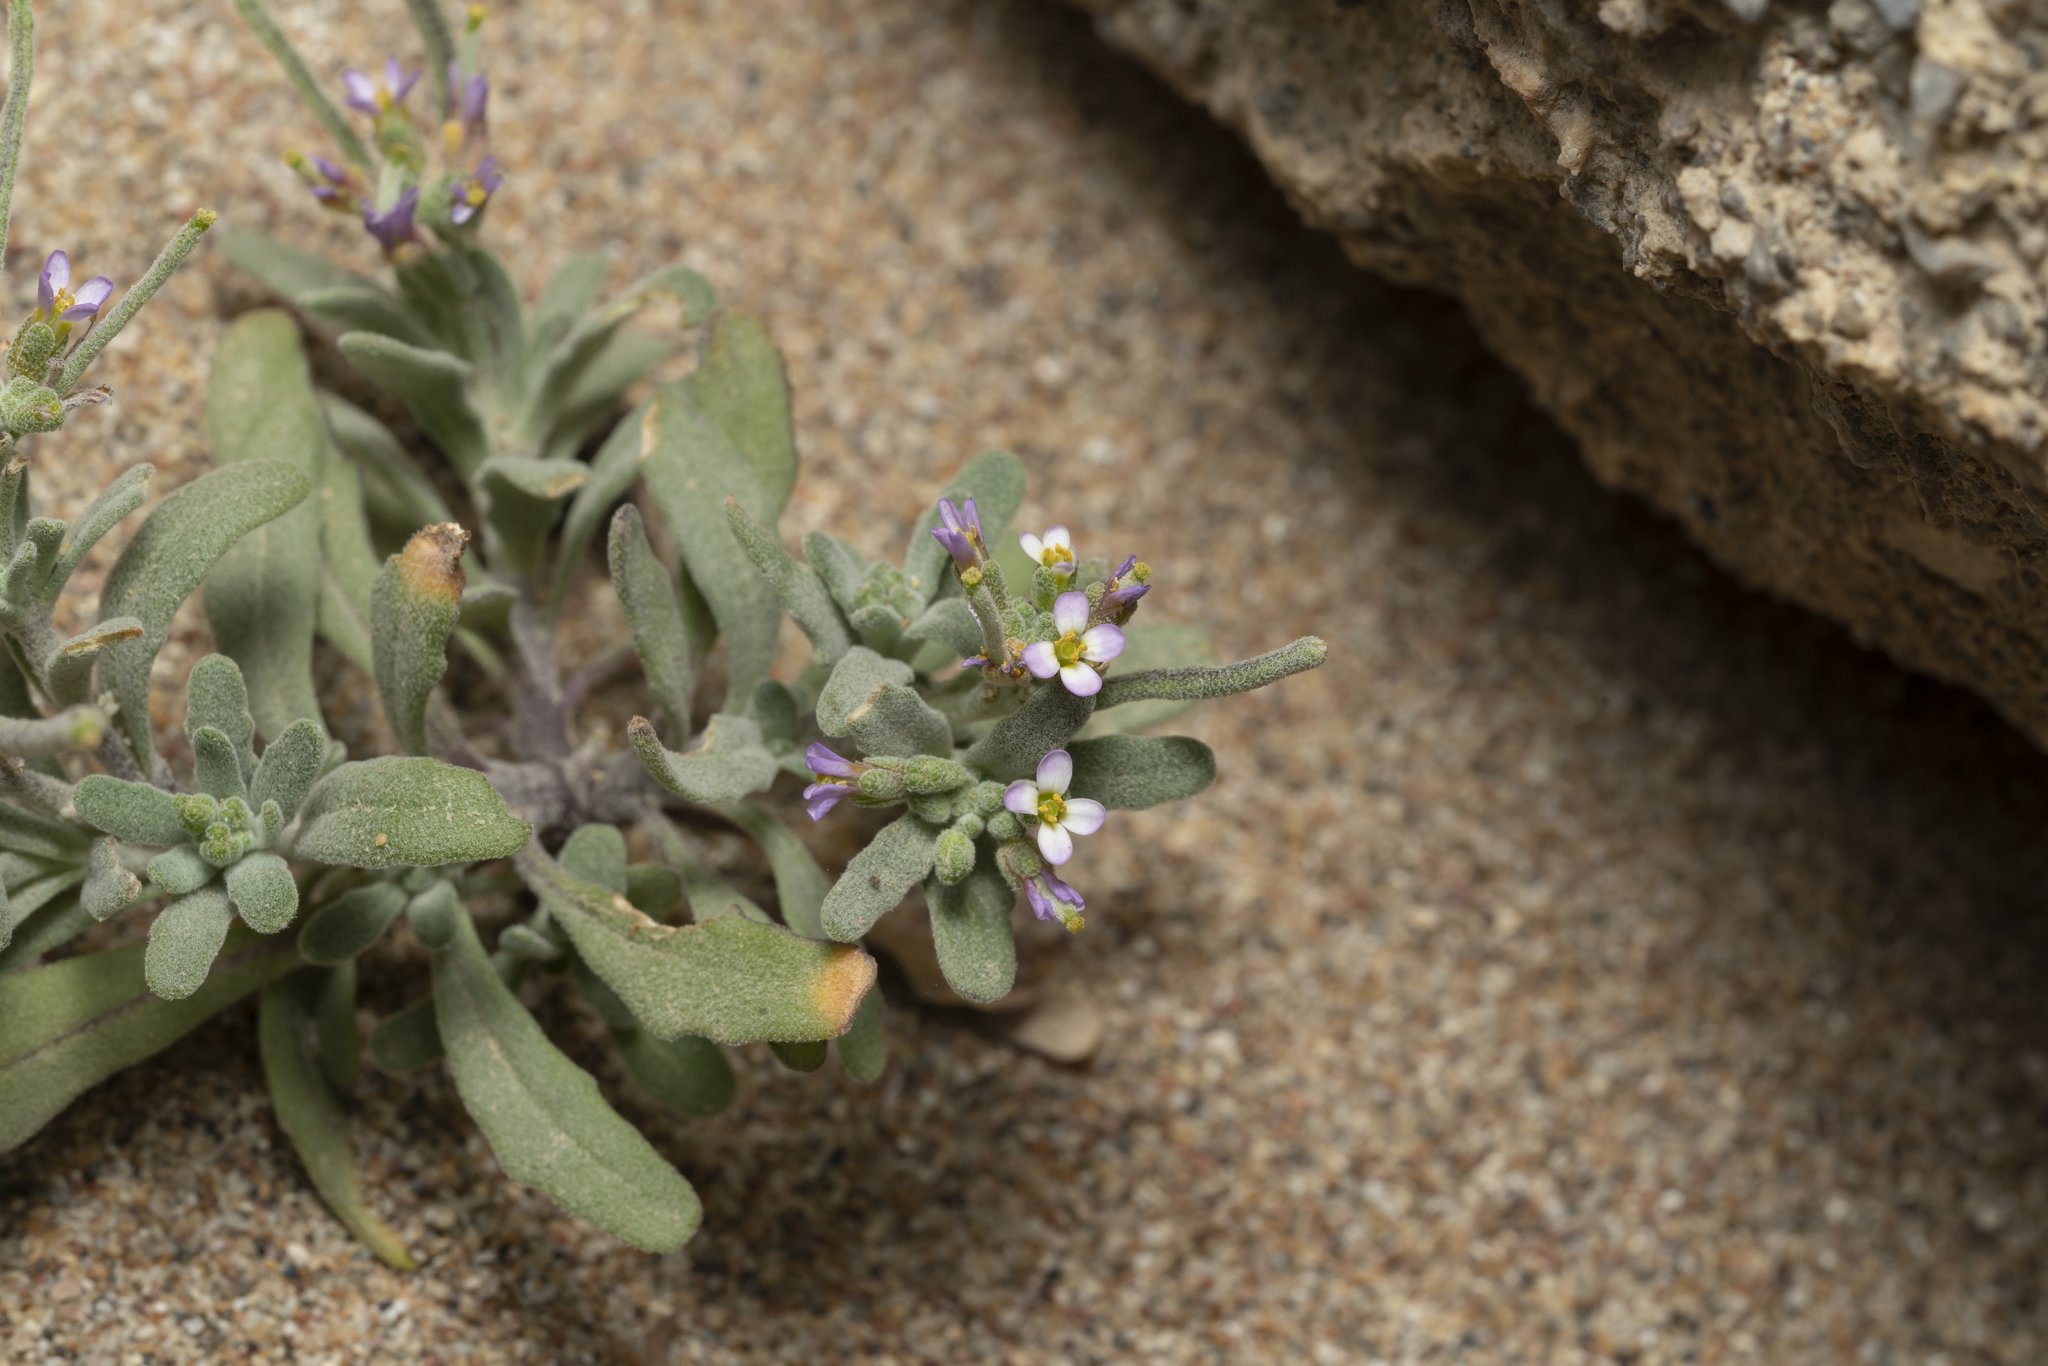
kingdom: Plantae
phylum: Tracheophyta
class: Magnoliopsida
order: Brassicales
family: Brassicaceae
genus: Maresia
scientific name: Maresia nana
